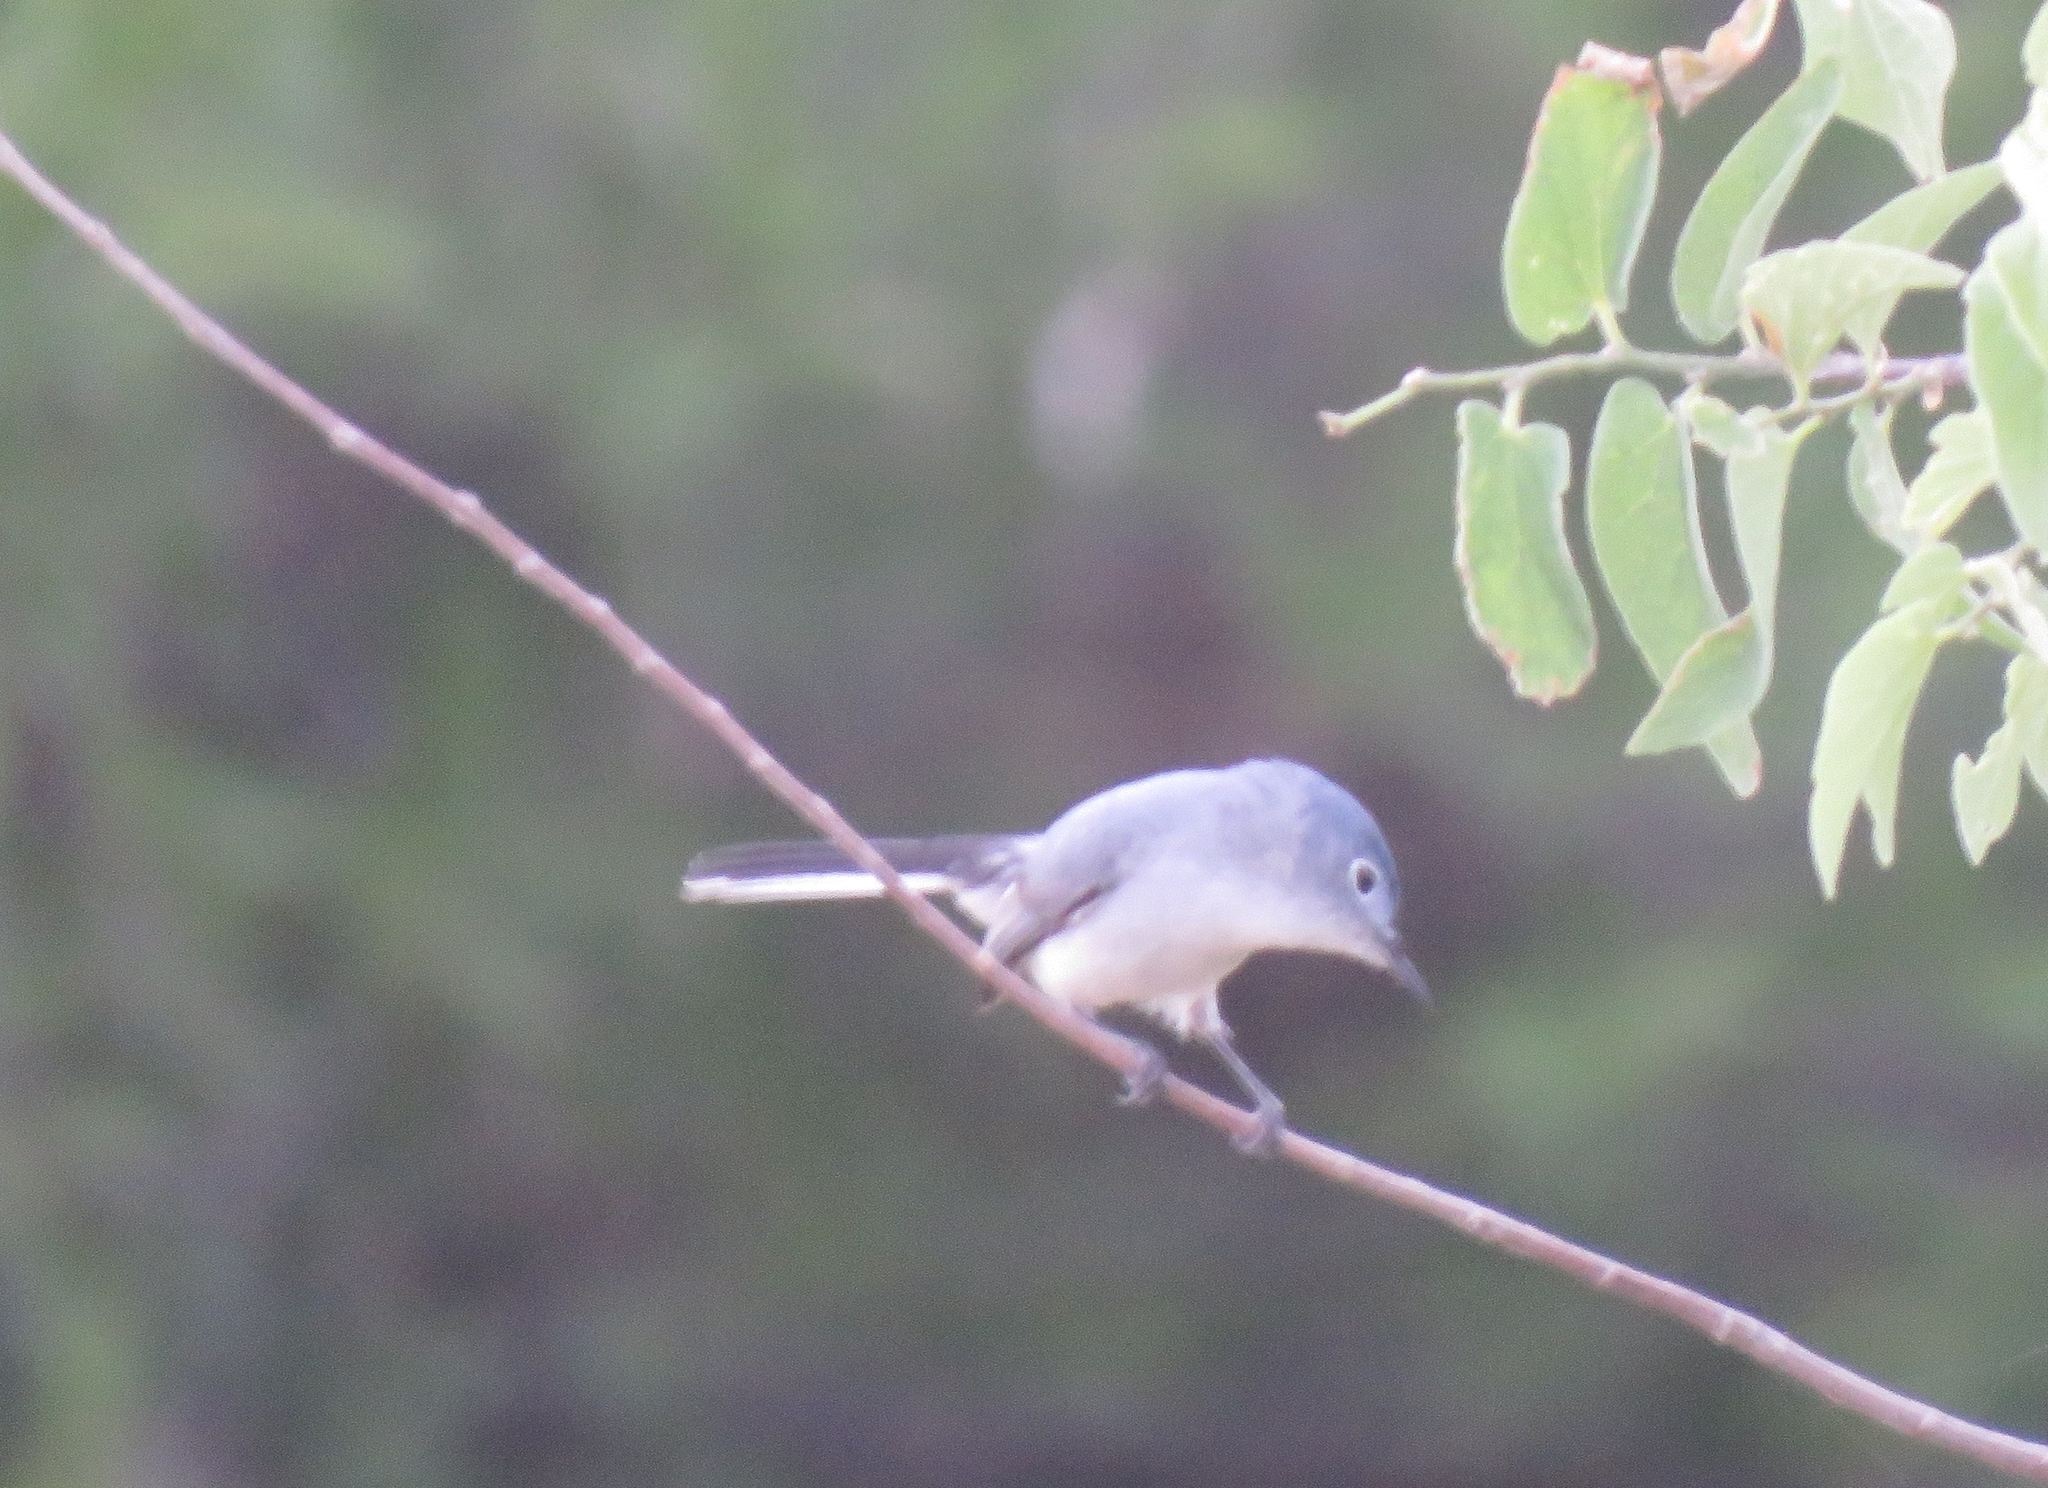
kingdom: Animalia
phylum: Chordata
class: Aves
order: Passeriformes
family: Polioptilidae
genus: Polioptila
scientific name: Polioptila caerulea
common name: Blue-gray gnatcatcher
